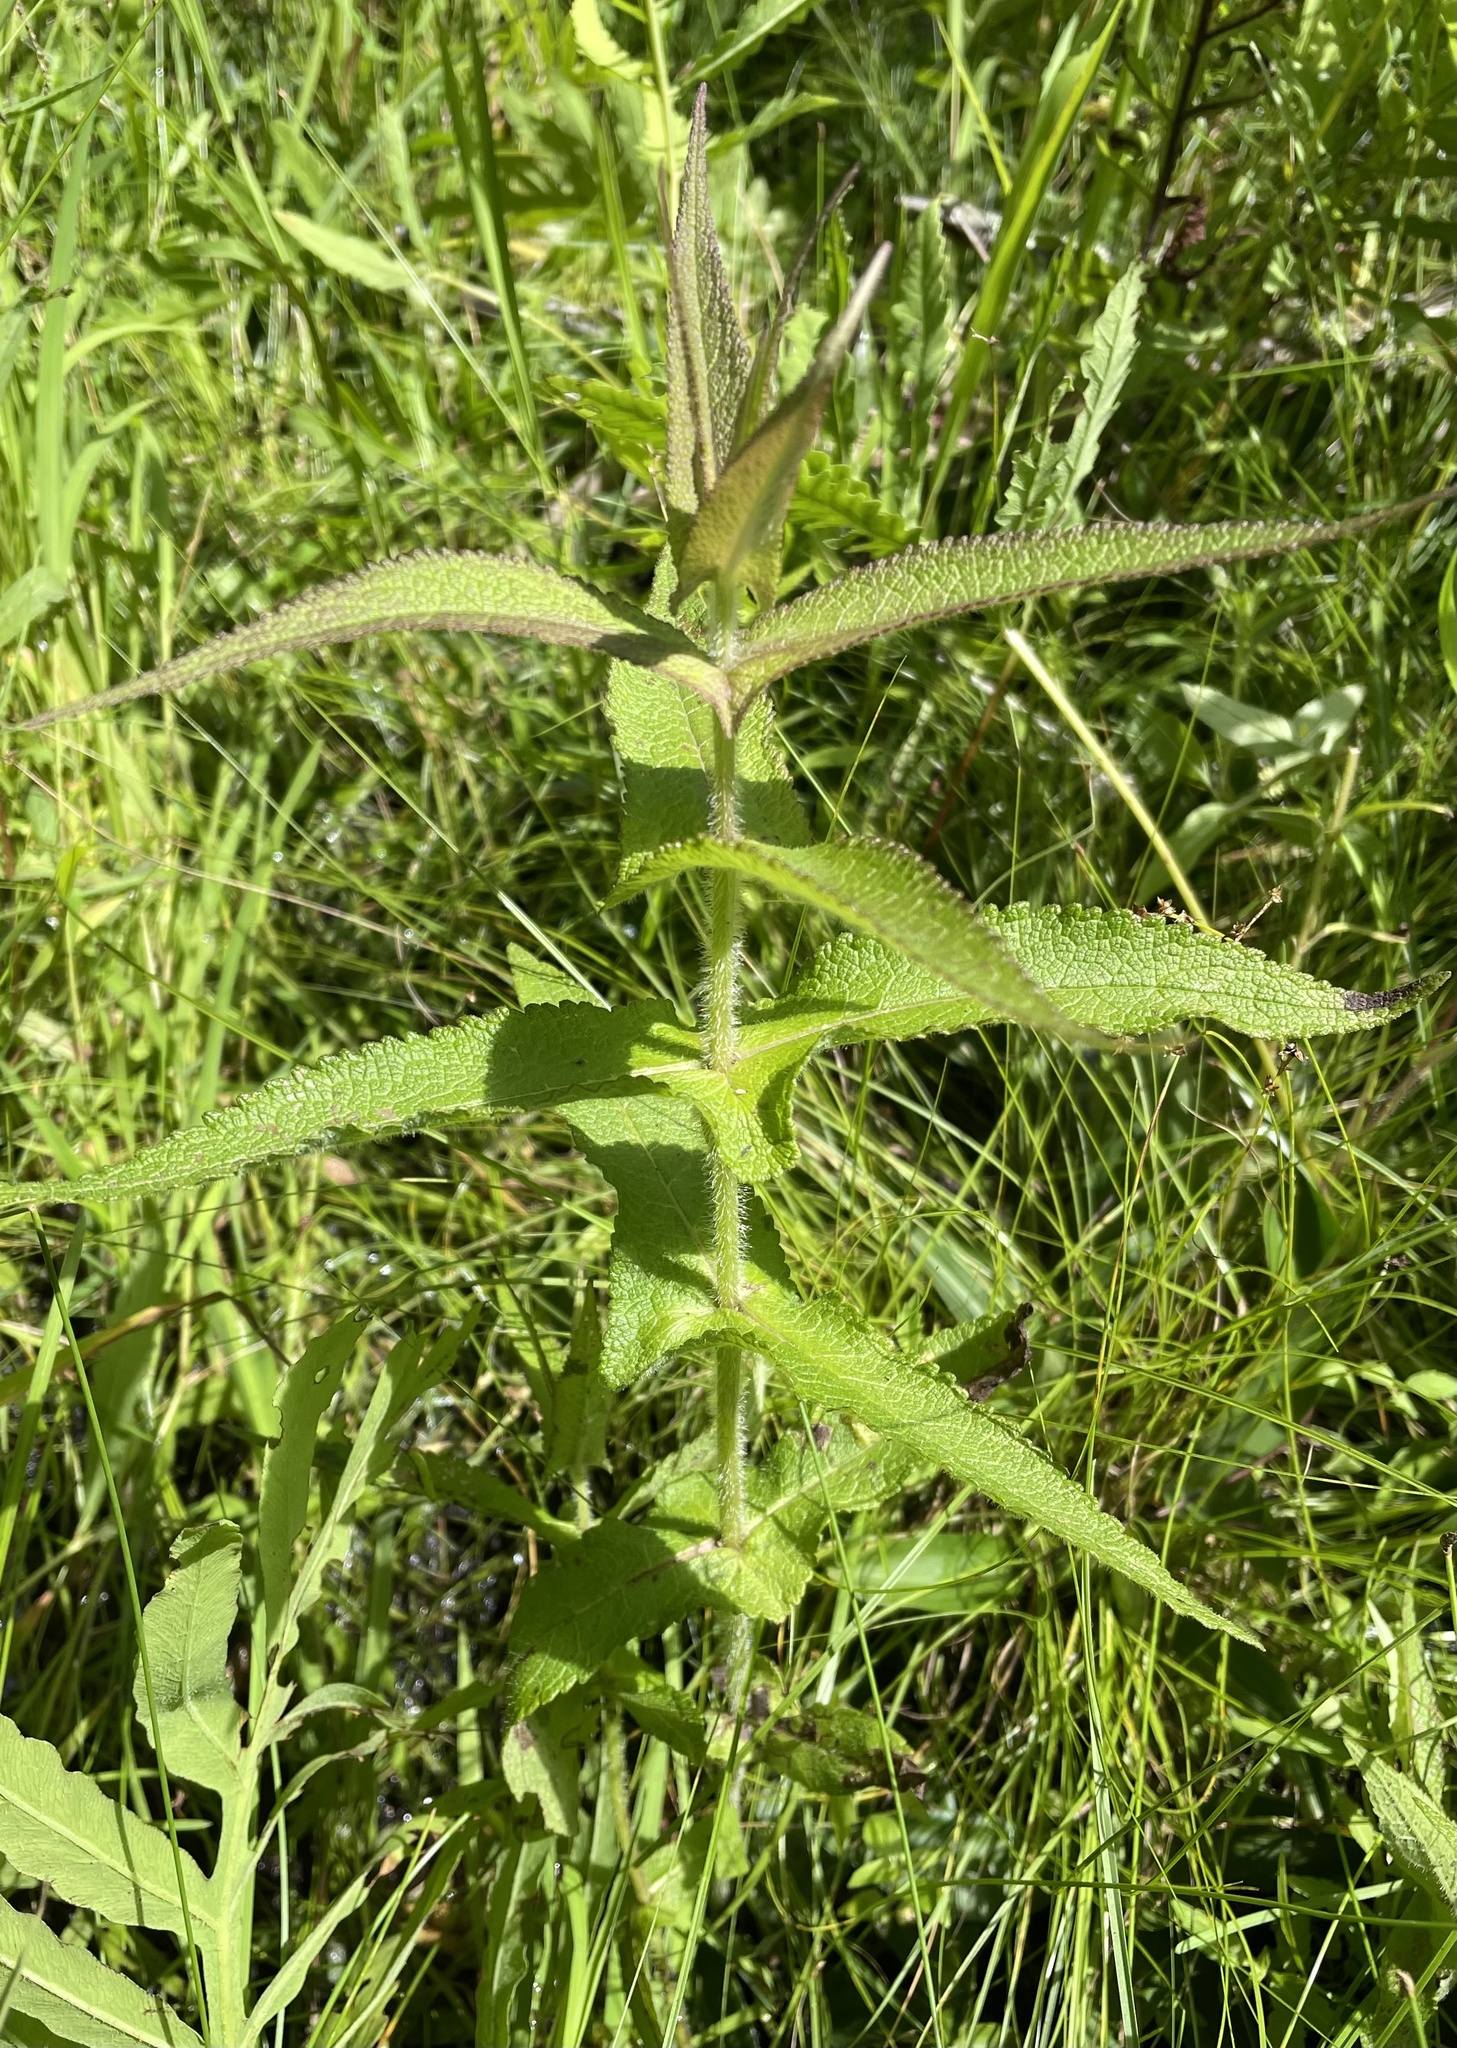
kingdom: Plantae
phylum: Tracheophyta
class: Magnoliopsida
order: Asterales
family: Asteraceae
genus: Eupatorium
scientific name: Eupatorium perfoliatum
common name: Boneset
